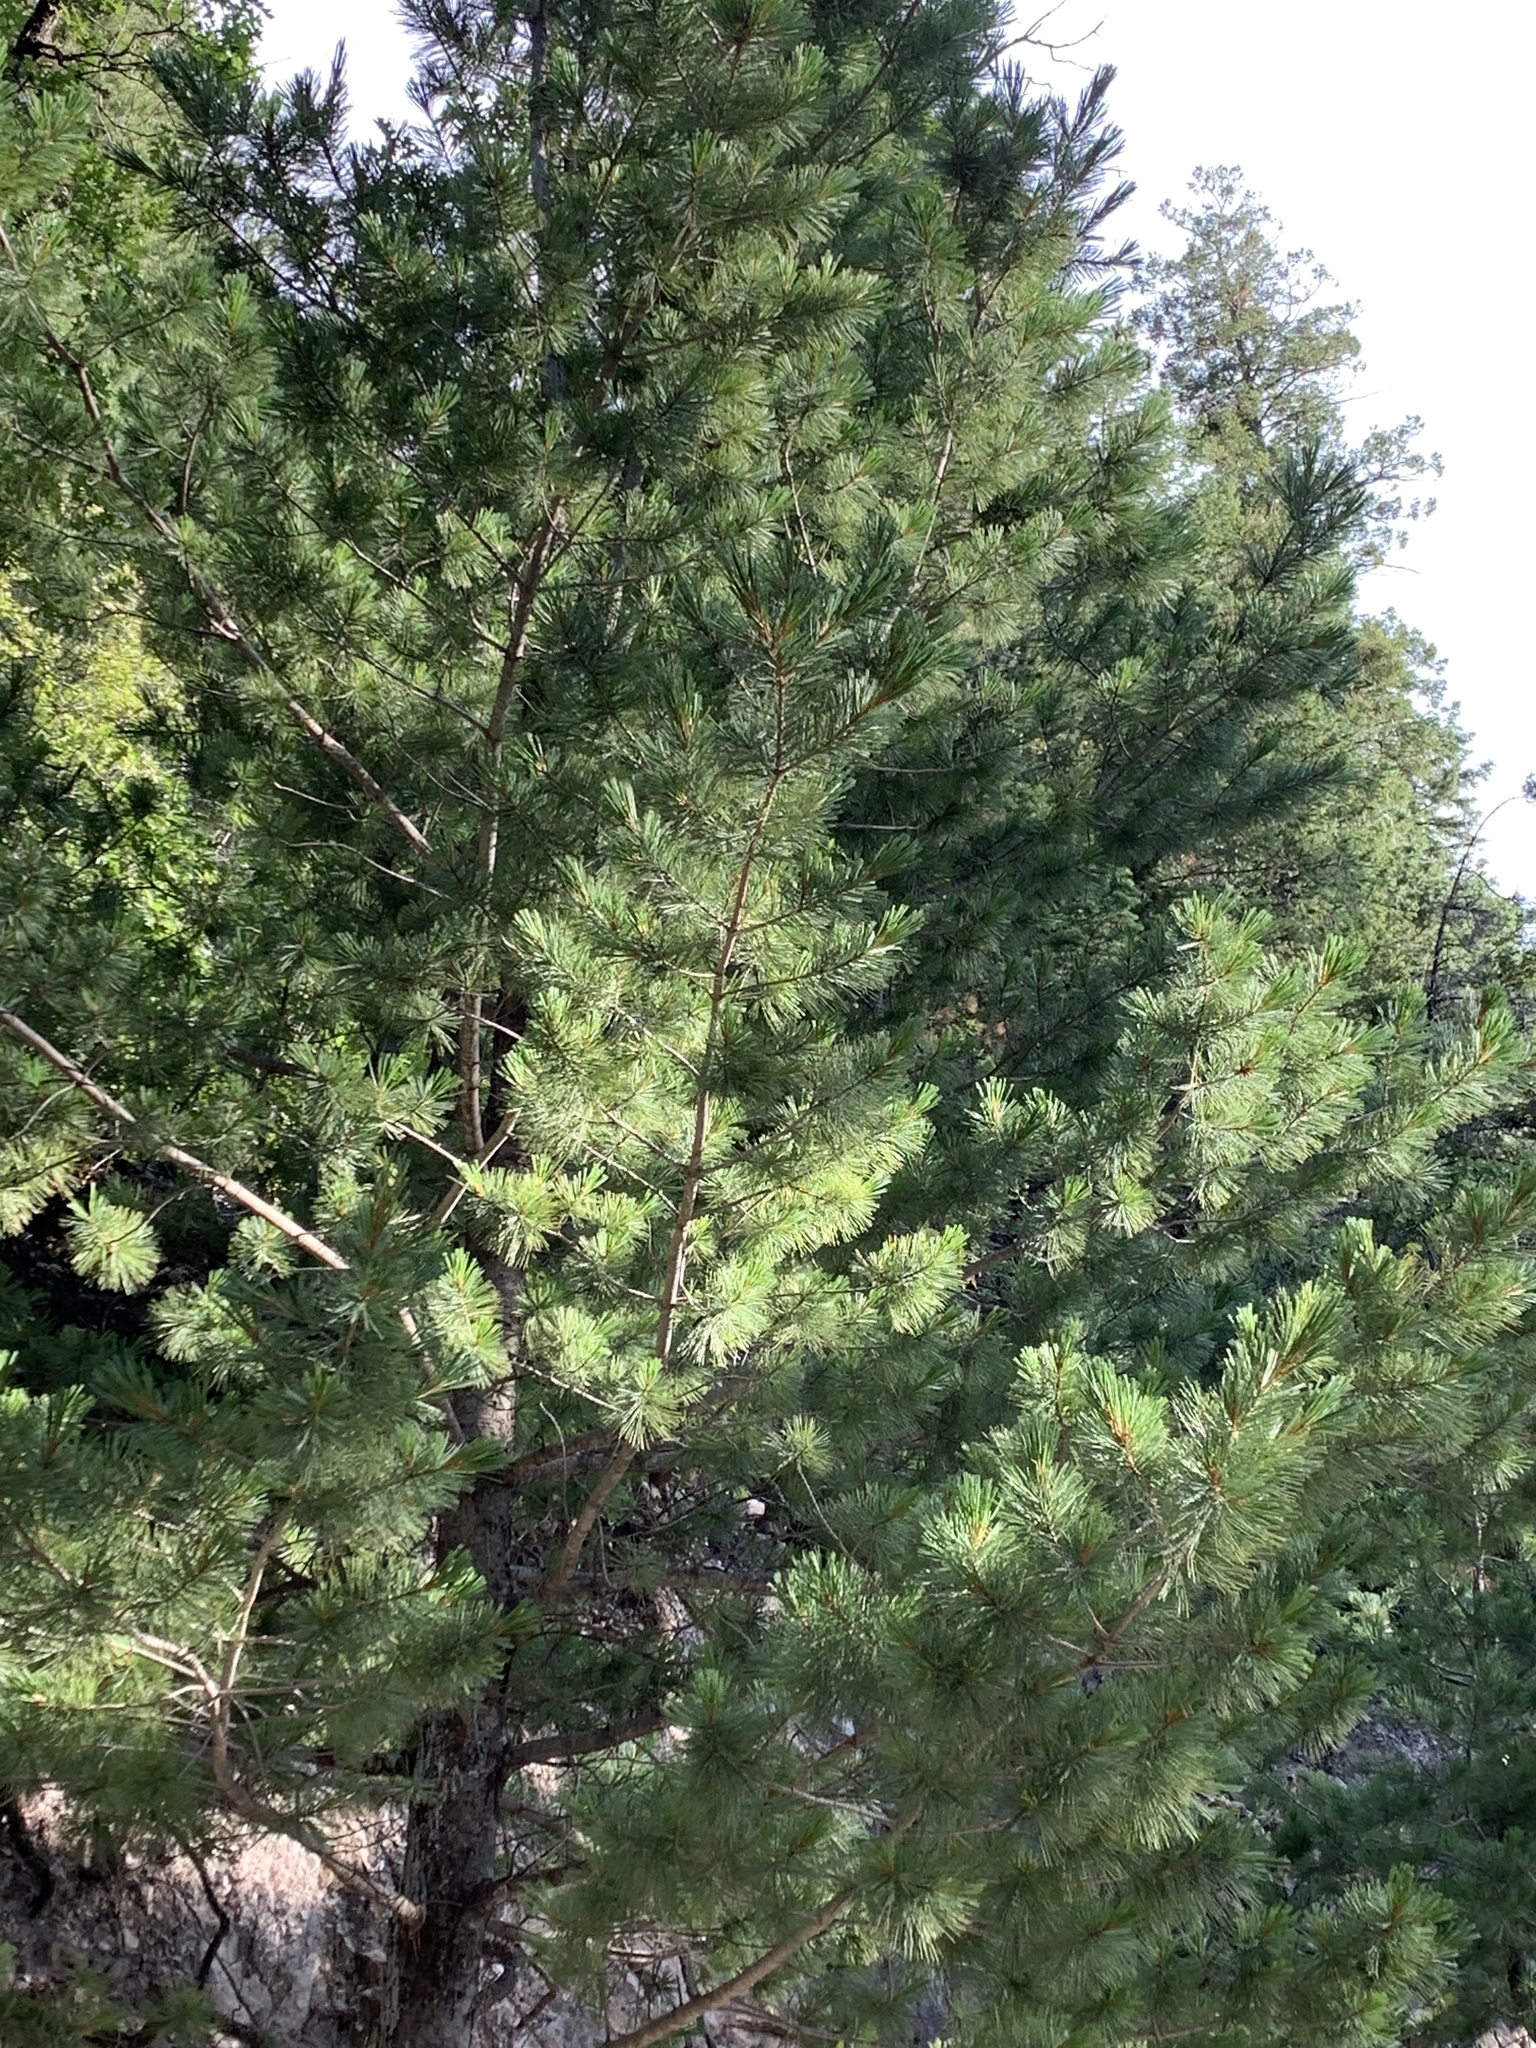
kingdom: Plantae
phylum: Tracheophyta
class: Pinopsida
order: Pinales
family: Pinaceae
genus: Pinus
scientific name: Pinus strobiformis
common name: Southwestern white pine
